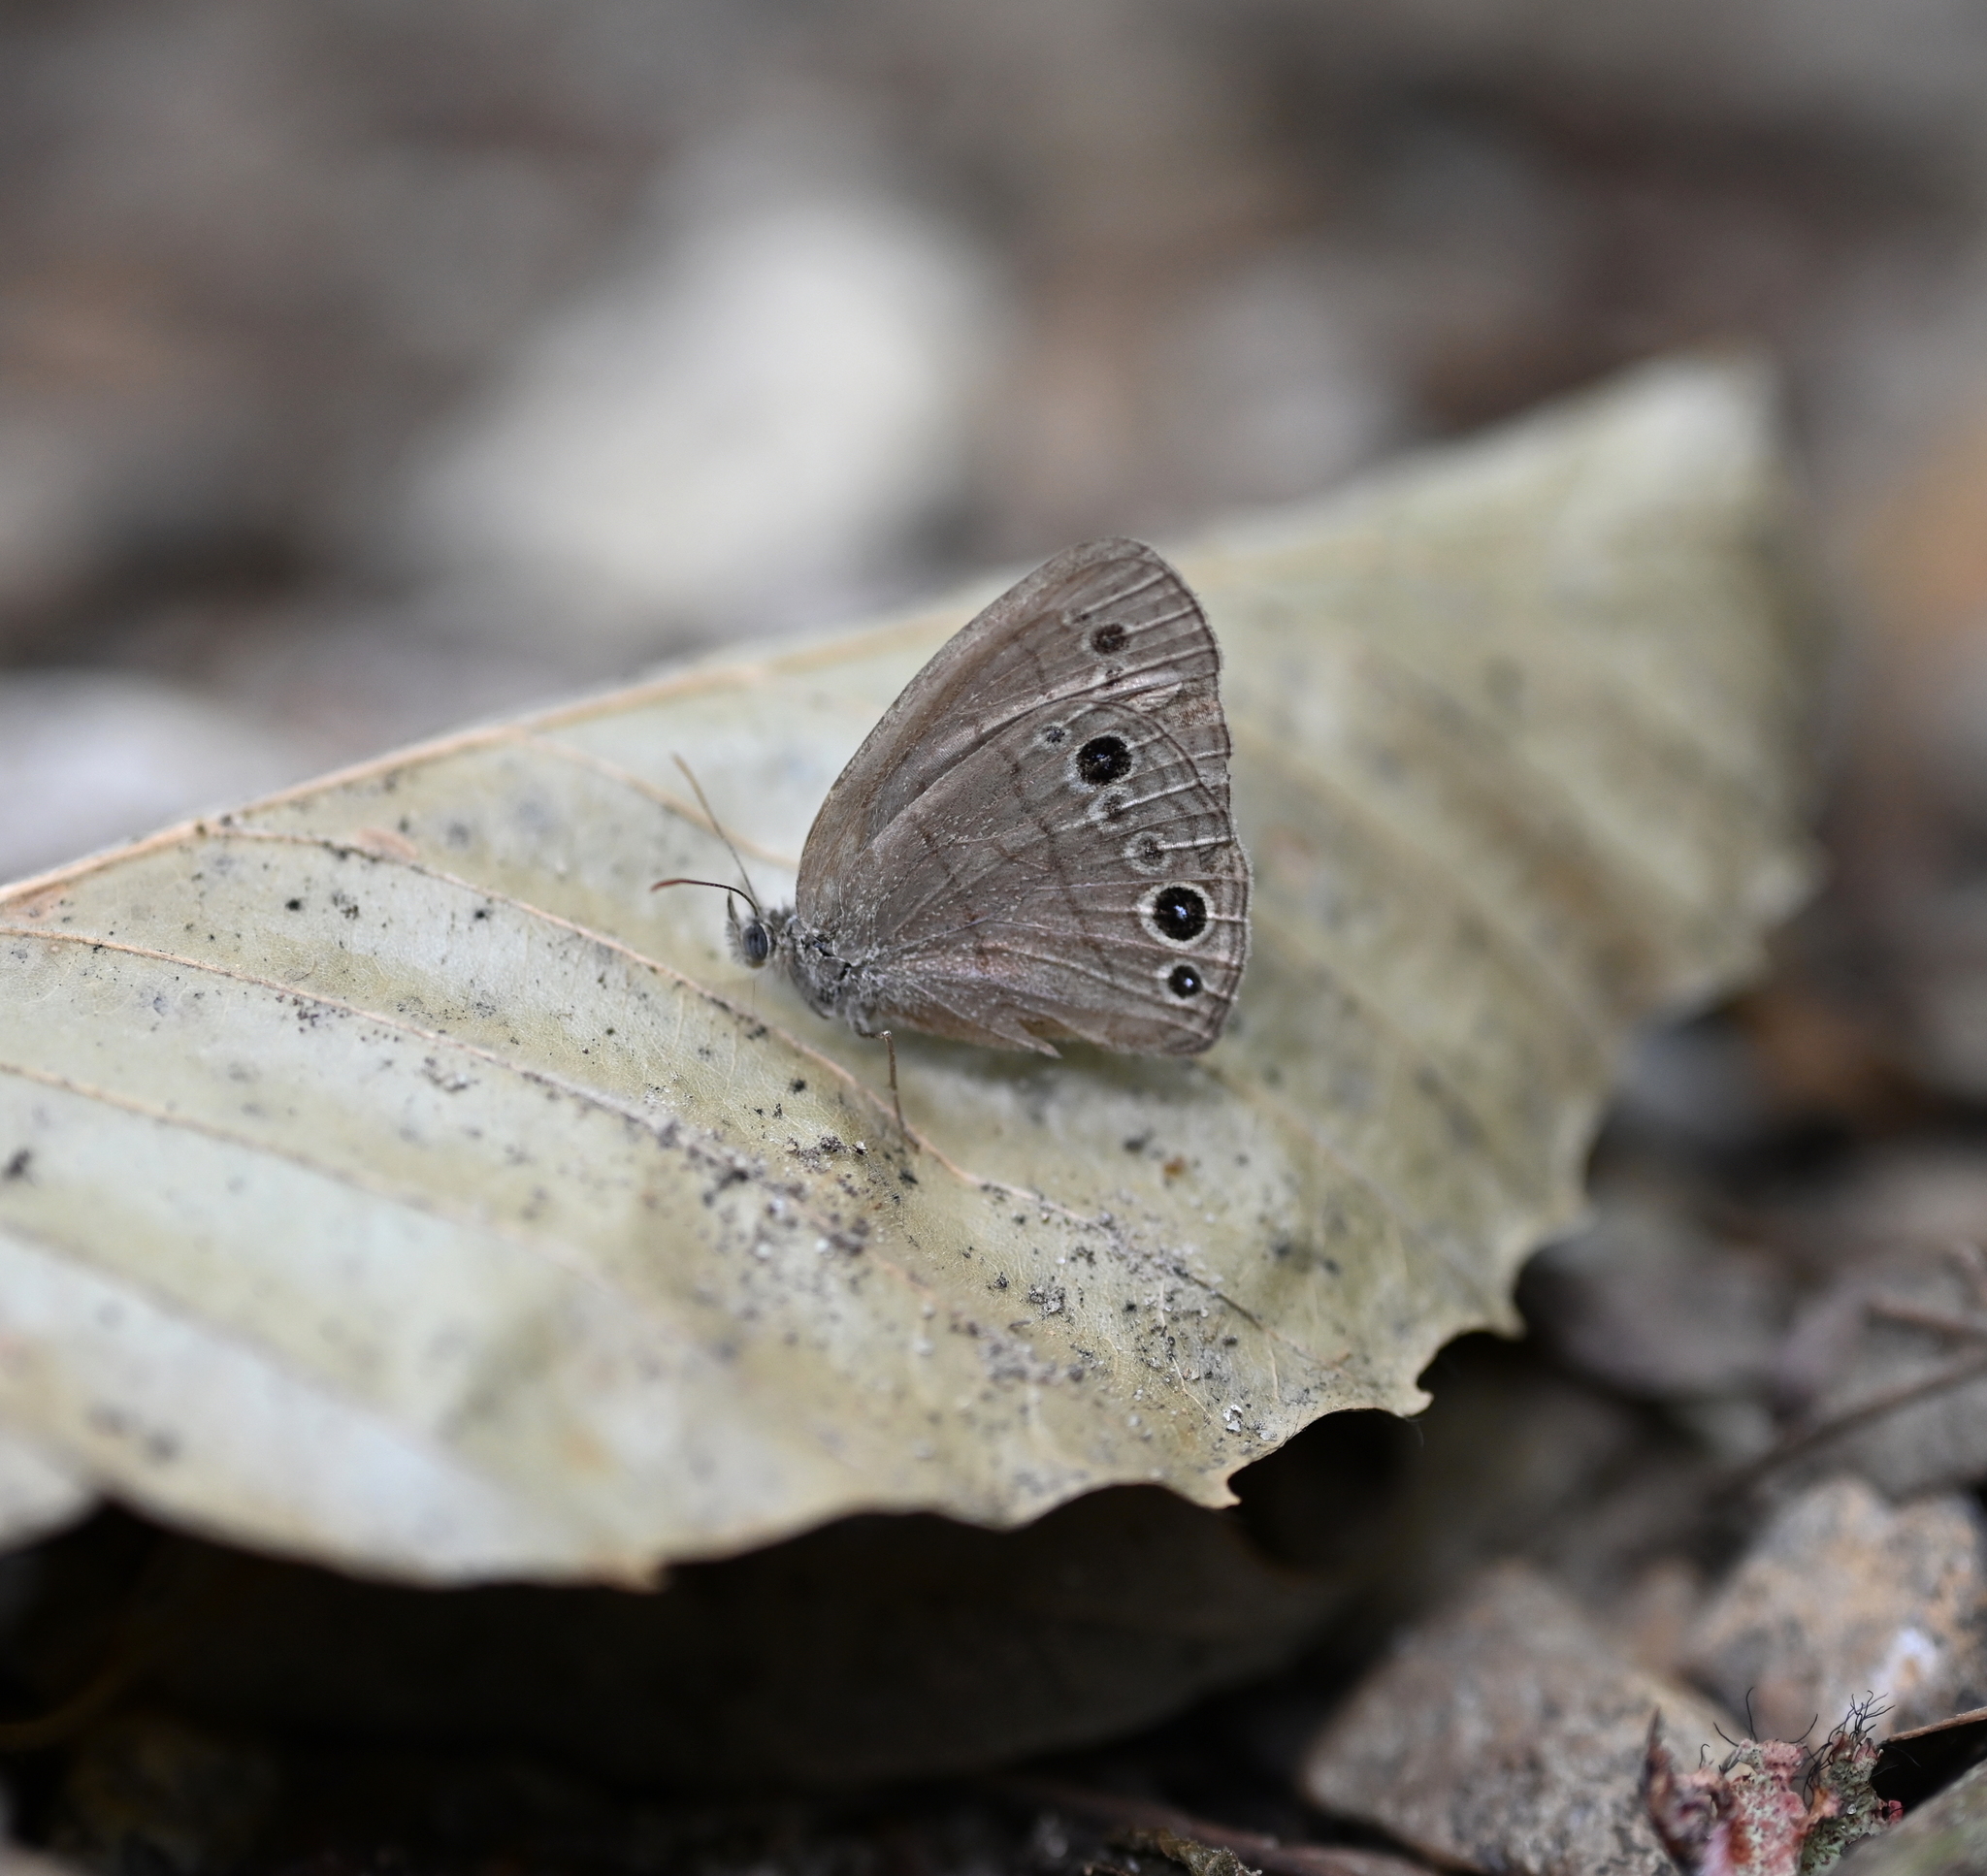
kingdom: Animalia
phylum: Arthropoda
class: Insecta
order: Lepidoptera
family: Nymphalidae
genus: Hermeuptychia
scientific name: Hermeuptychia hermes
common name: Hermes satyr
